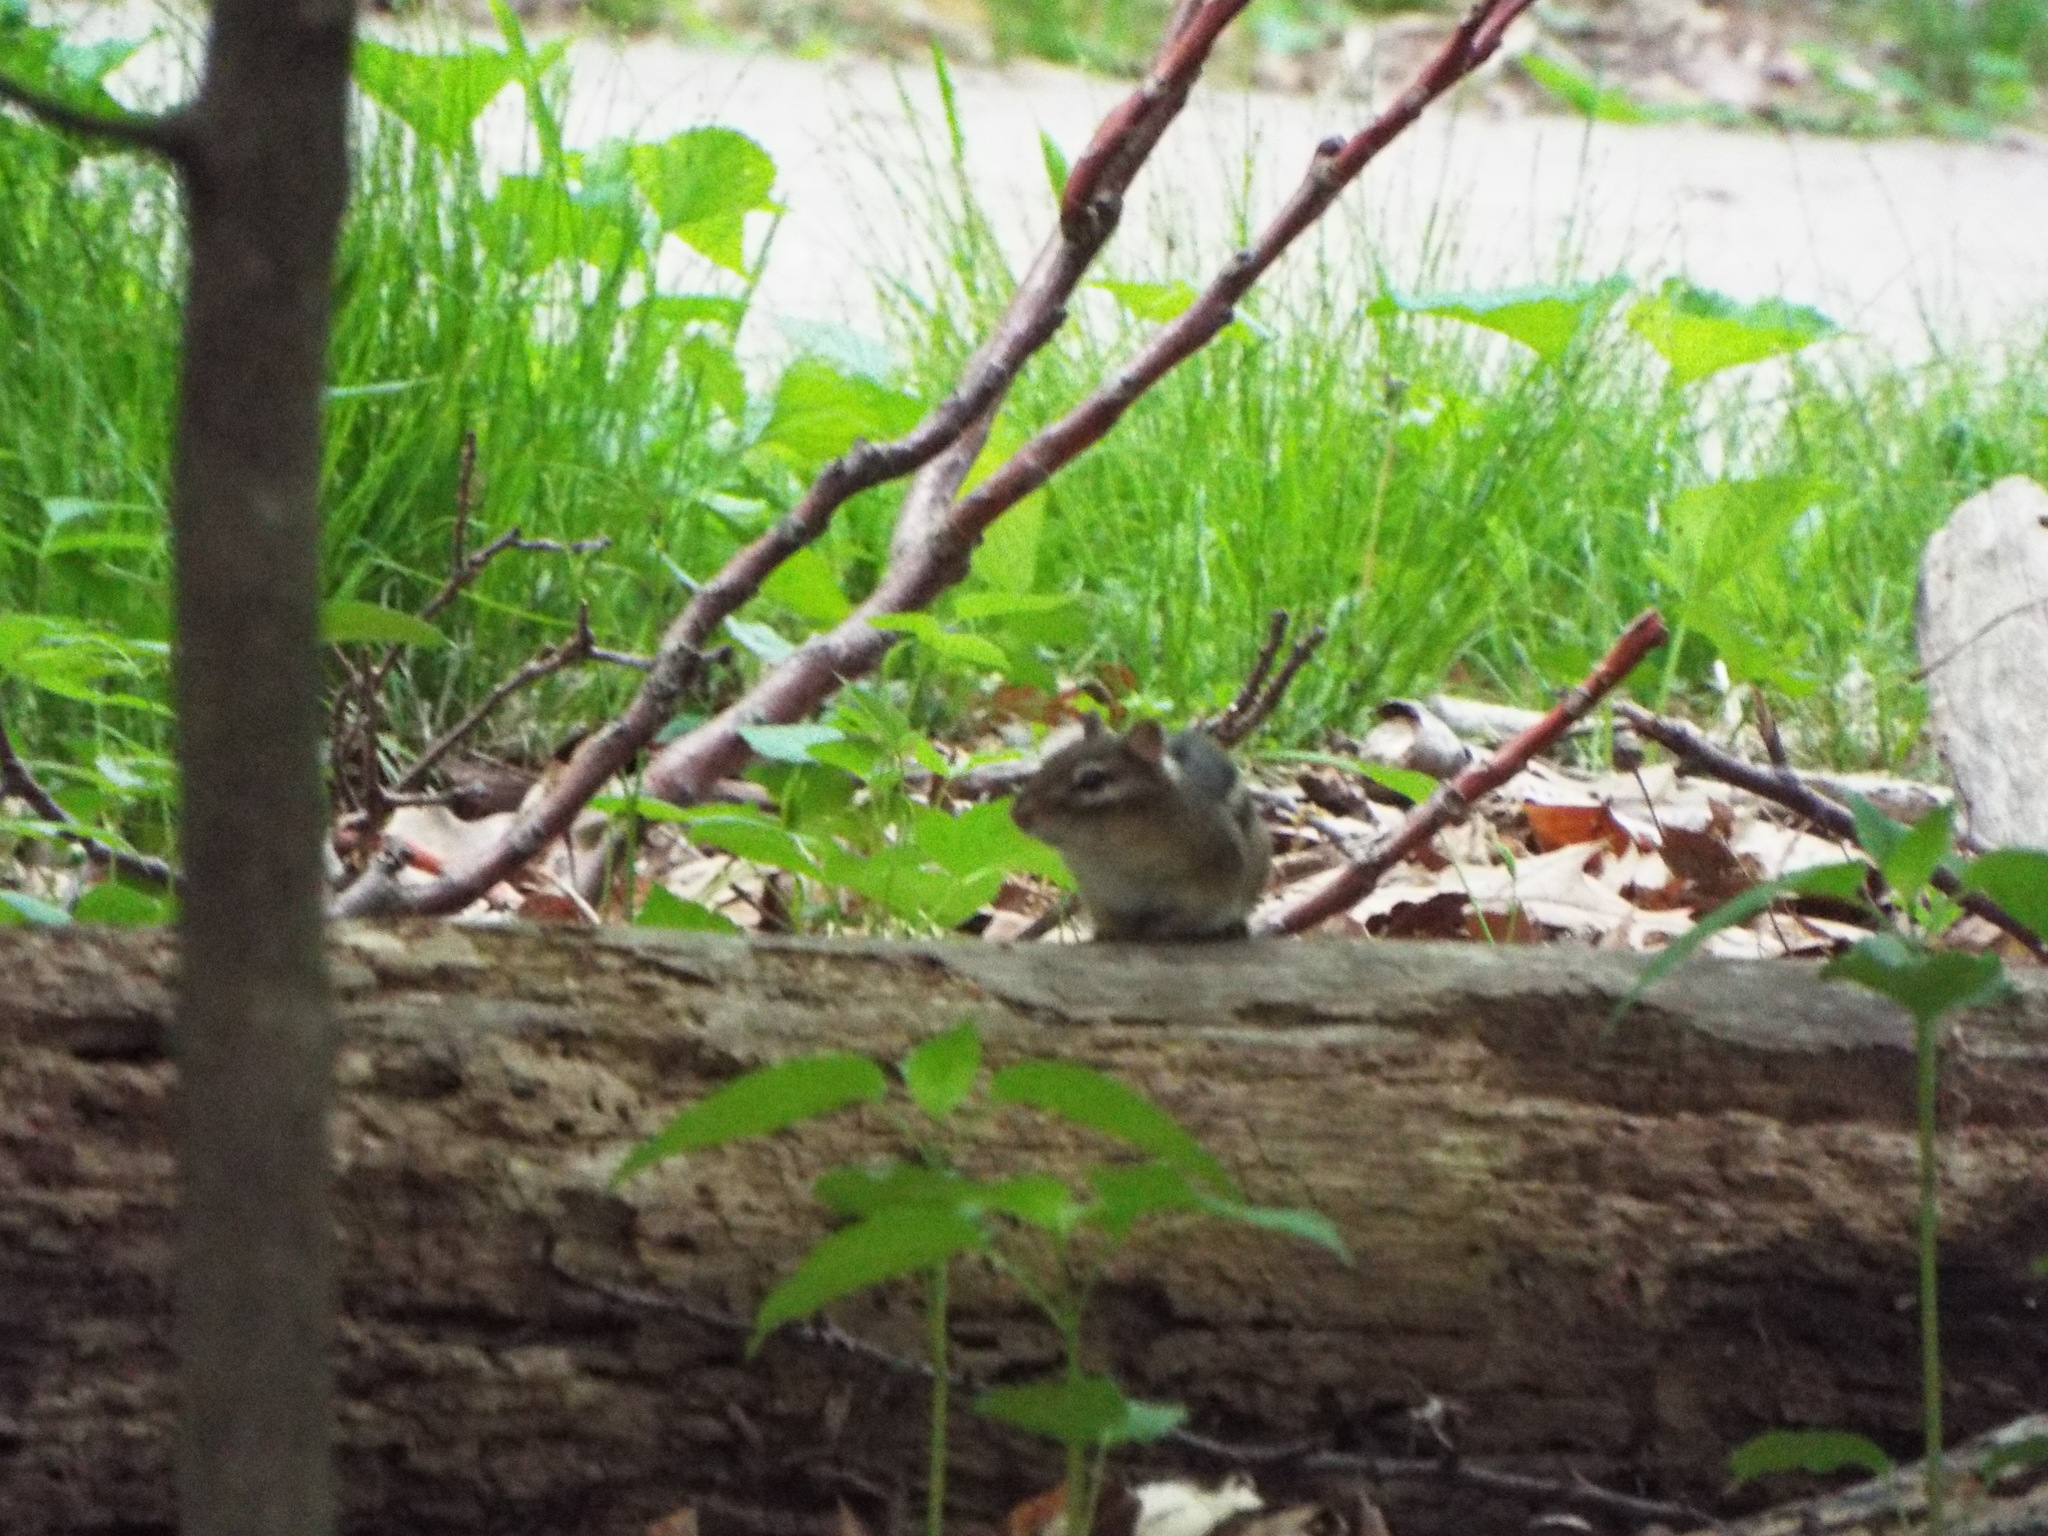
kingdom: Animalia
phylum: Chordata
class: Mammalia
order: Rodentia
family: Sciuridae
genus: Tamias
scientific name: Tamias striatus
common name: Eastern chipmunk
